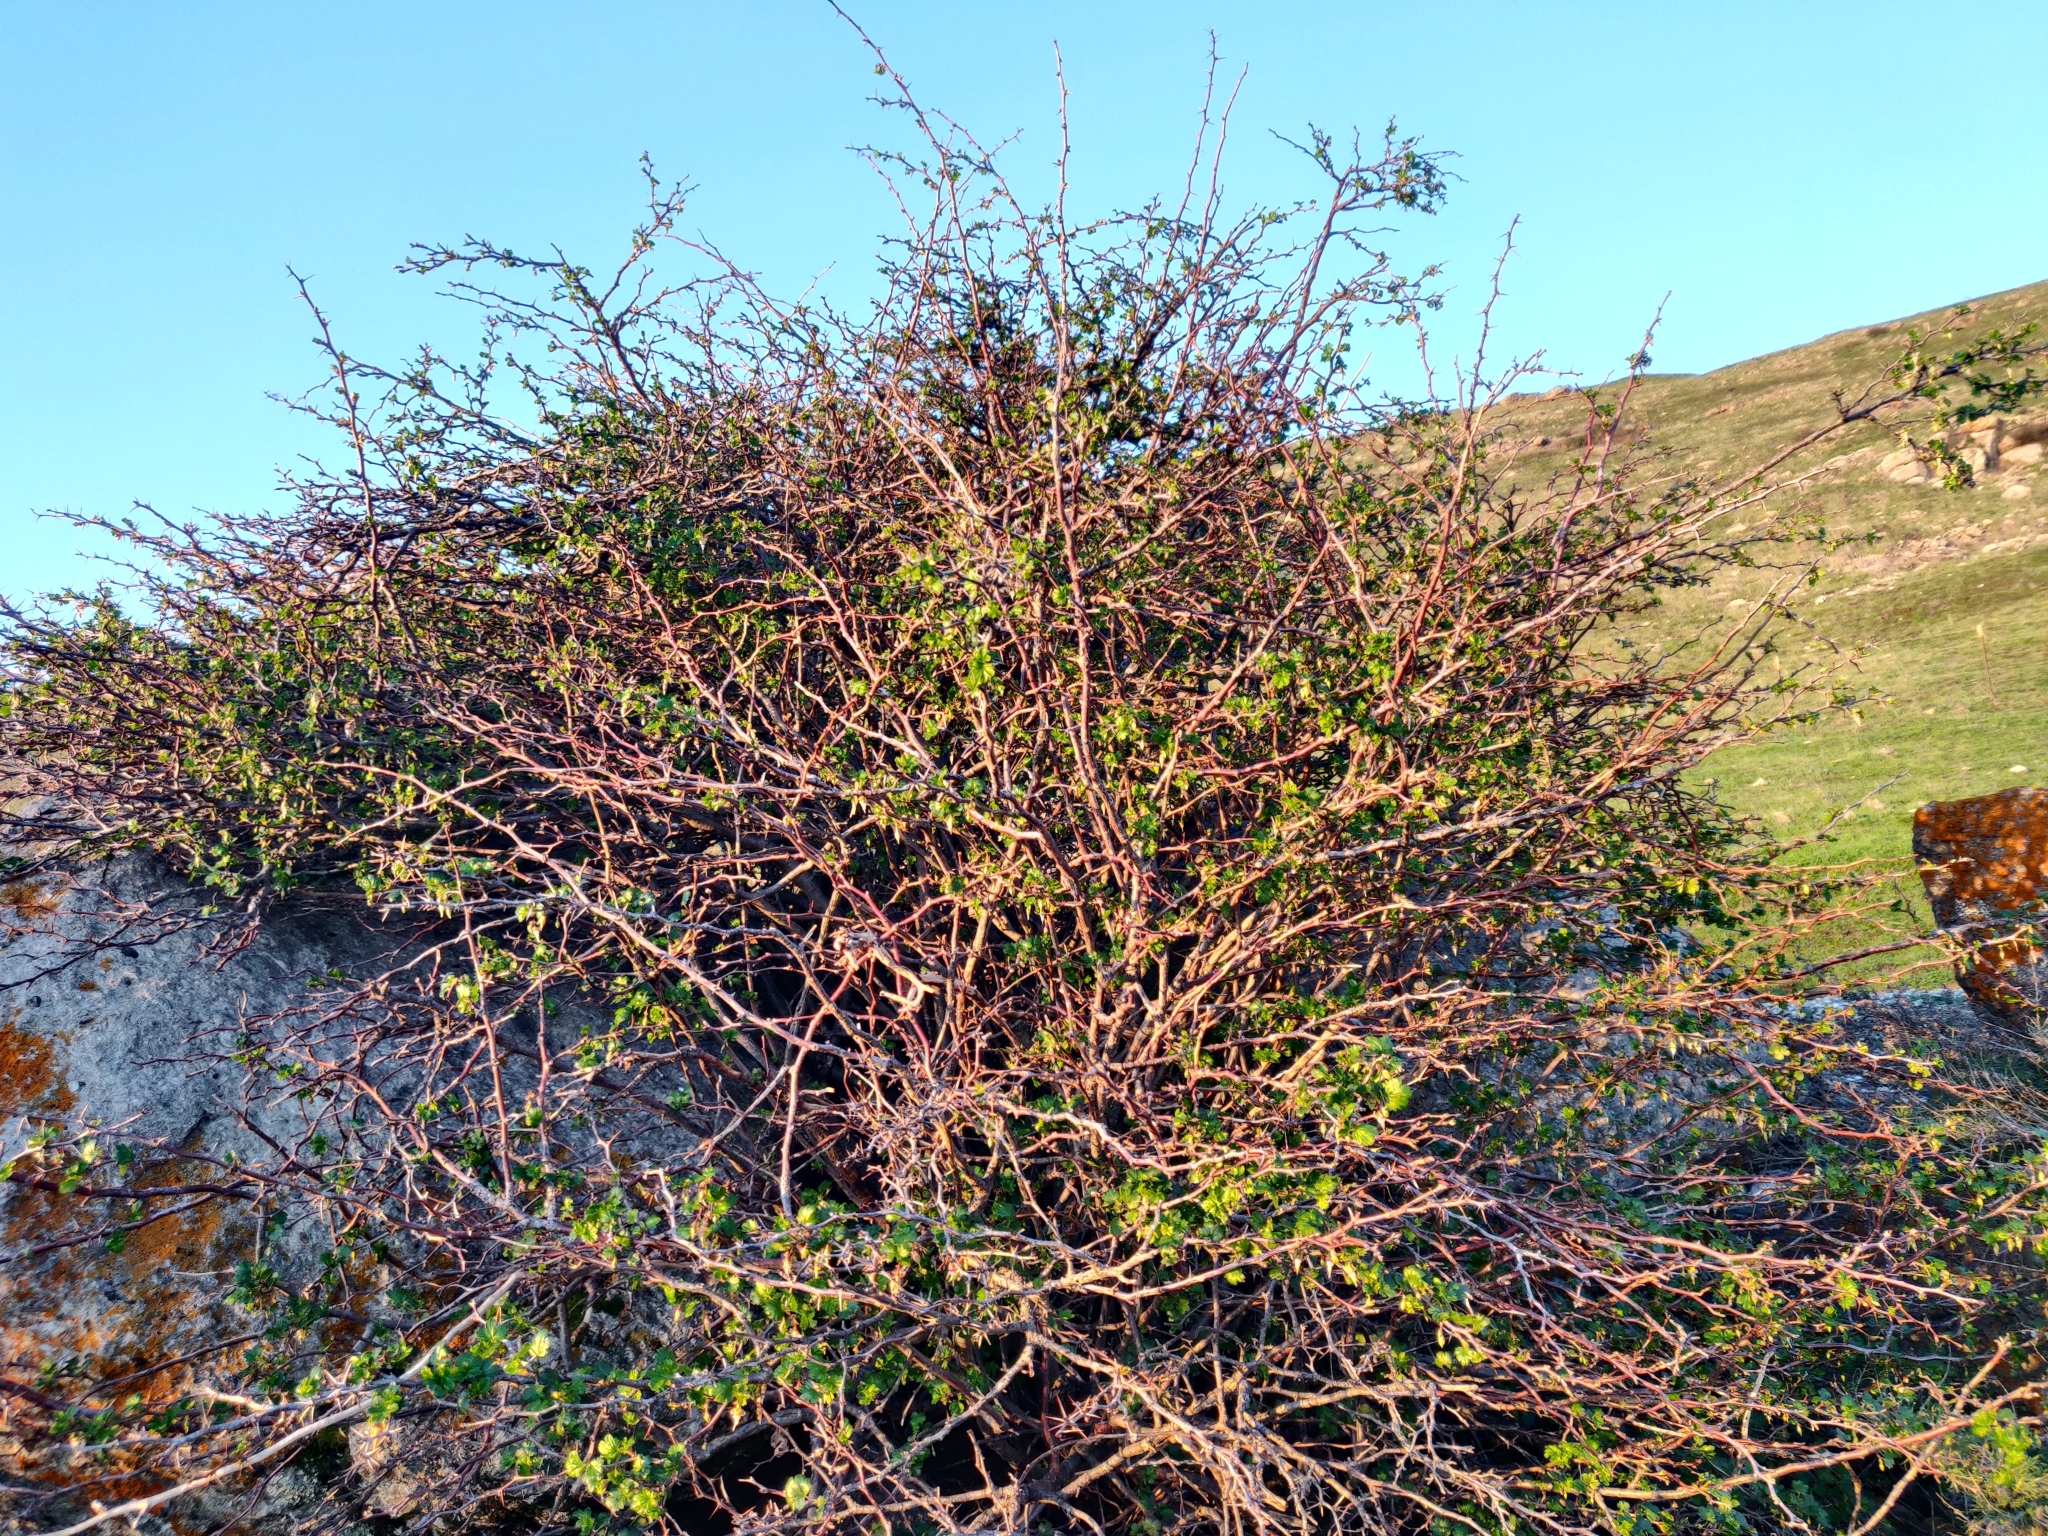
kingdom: Plantae
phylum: Tracheophyta
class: Magnoliopsida
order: Saxifragales
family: Grossulariaceae
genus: Ribes
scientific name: Ribes californicum
